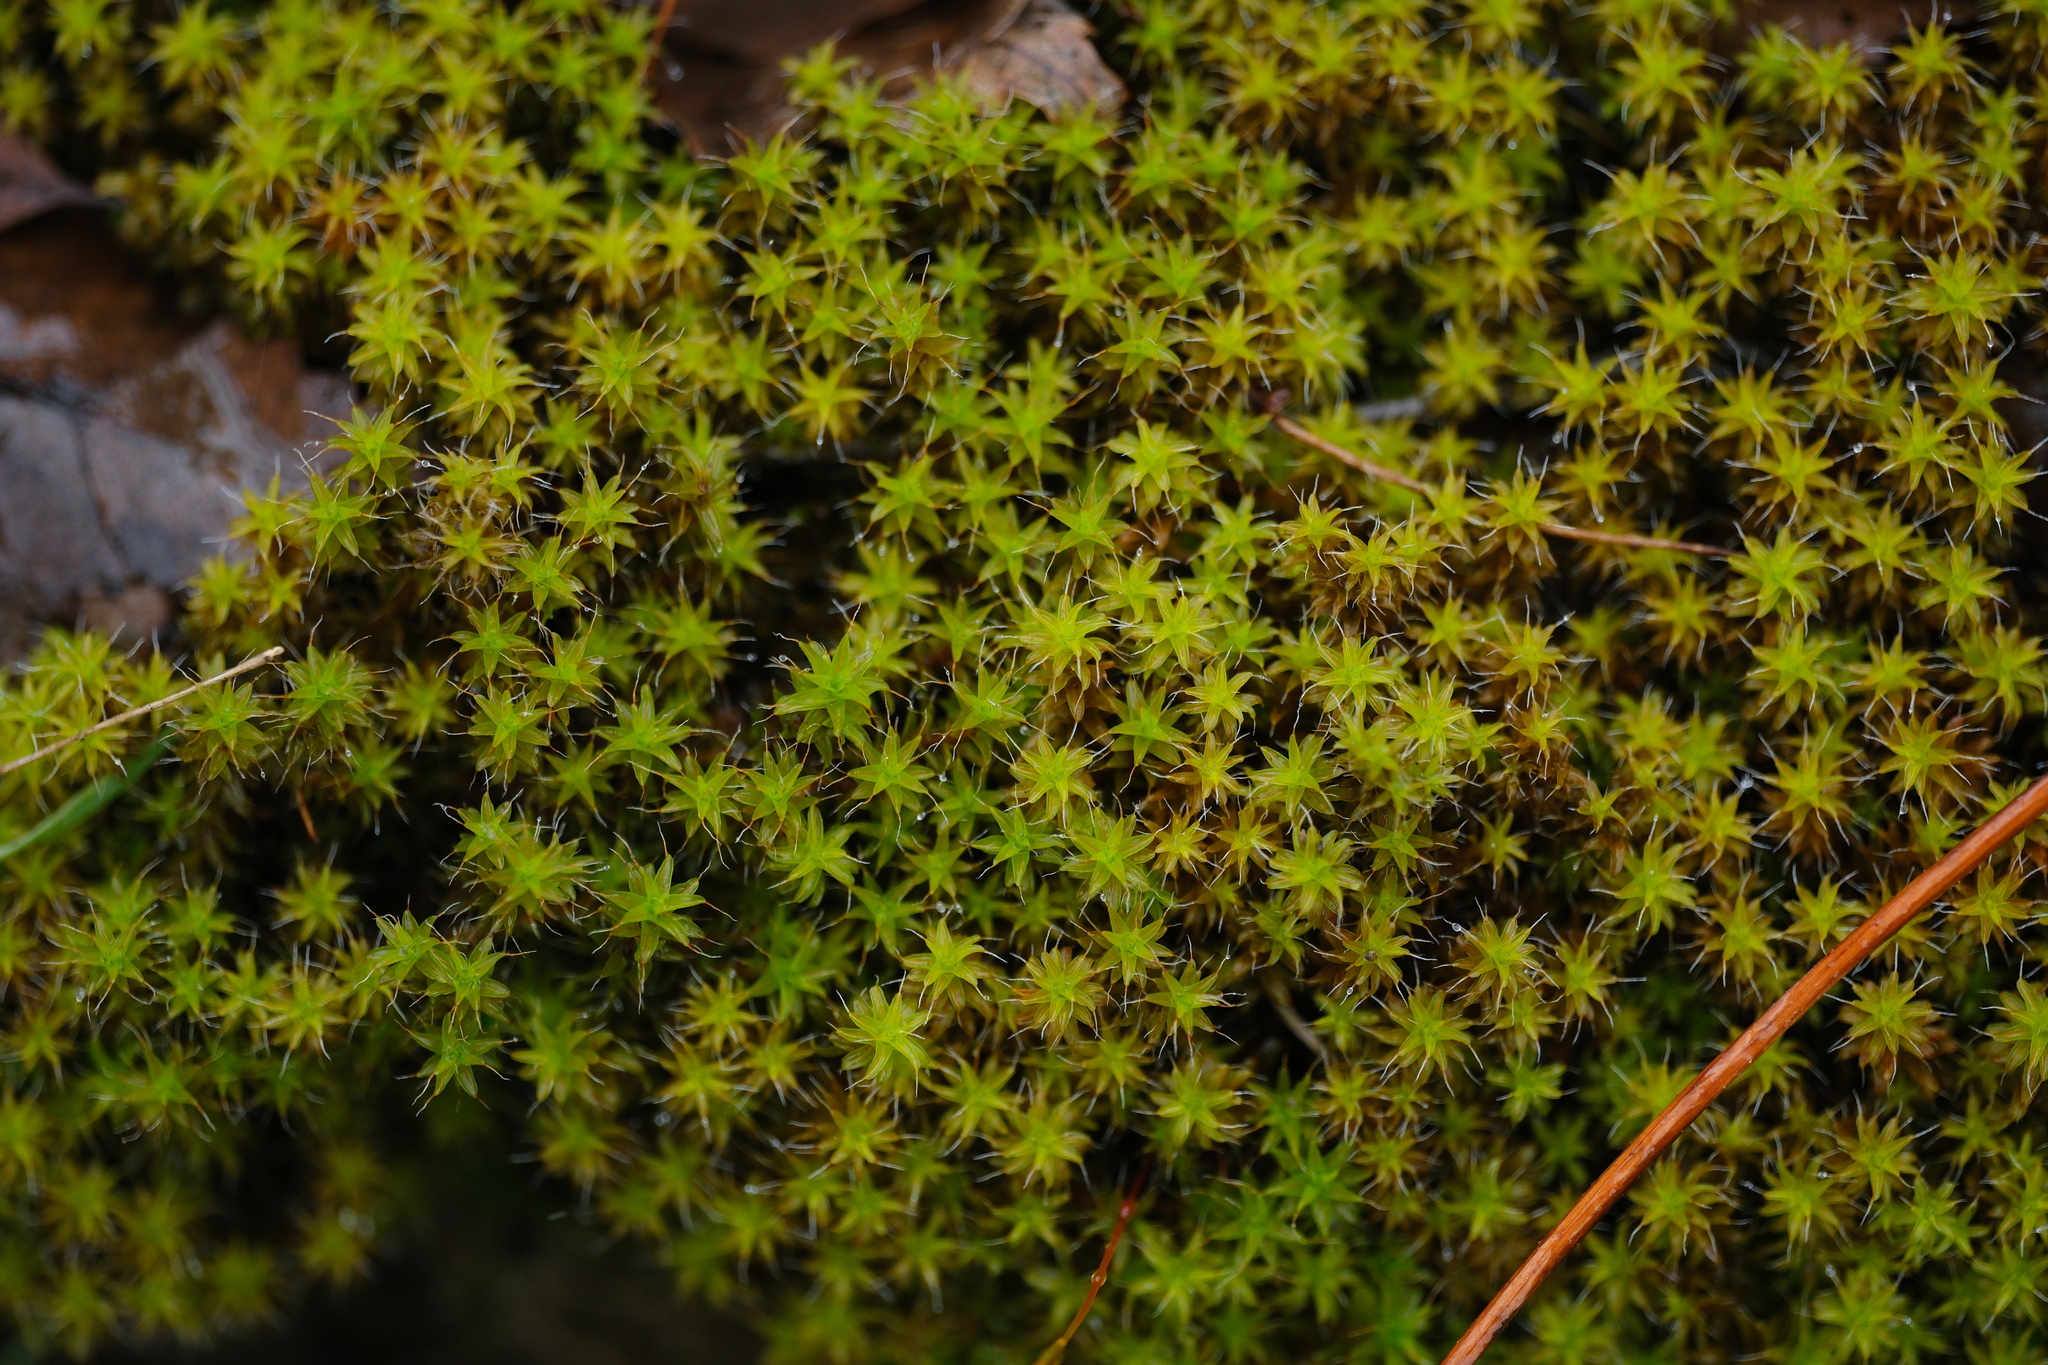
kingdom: Plantae
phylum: Bryophyta
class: Bryopsida
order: Pottiales
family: Pottiaceae
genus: Syntrichia
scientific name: Syntrichia ruralis
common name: Sidewalk screw moss
